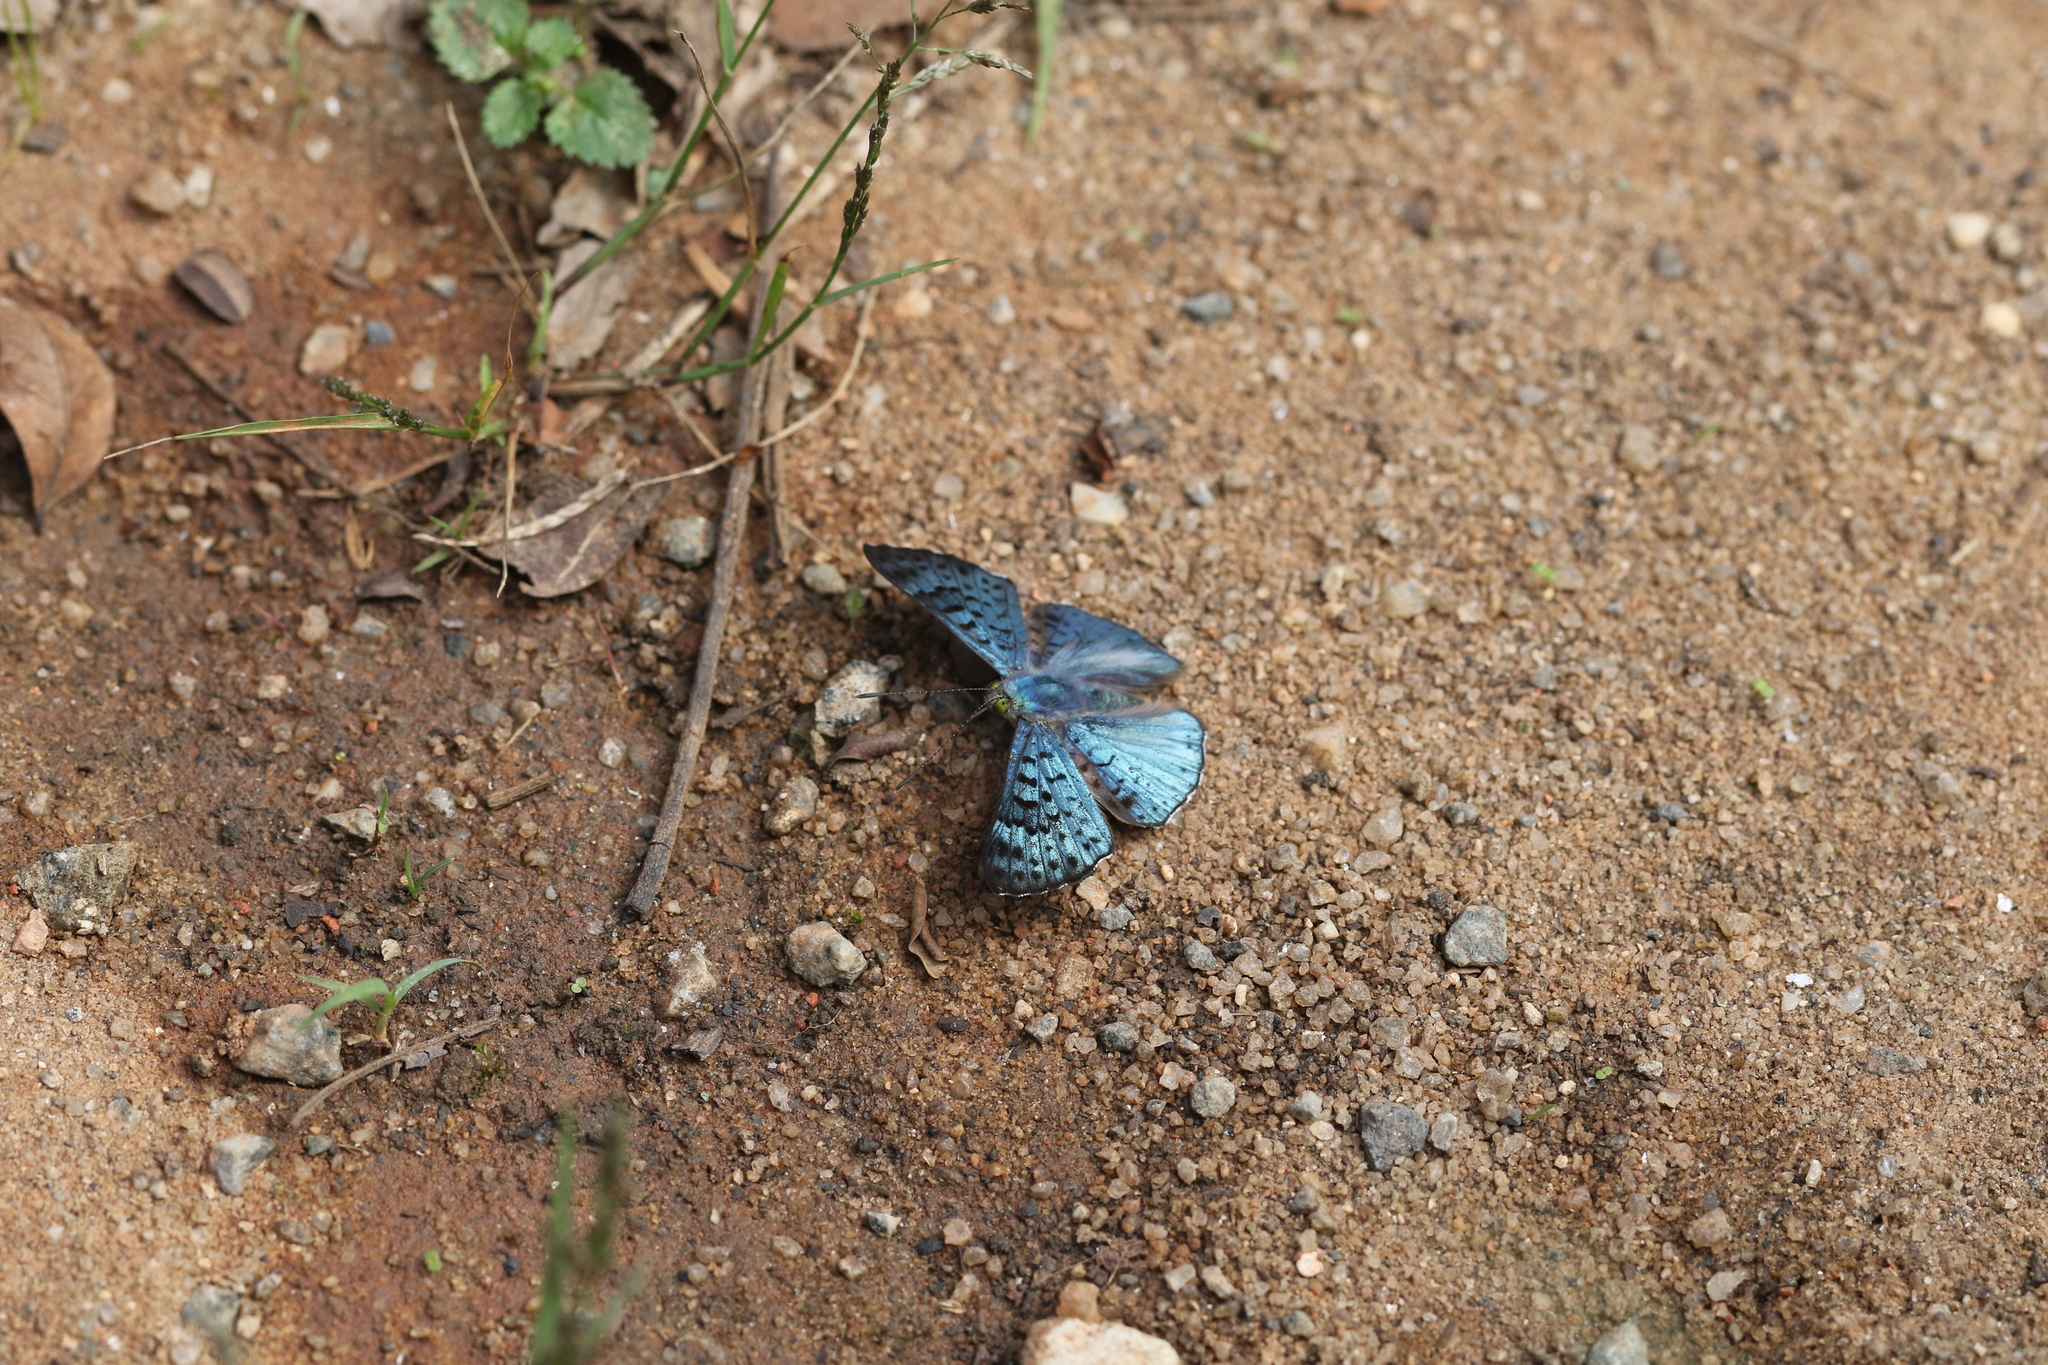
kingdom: Animalia
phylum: Arthropoda
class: Insecta
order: Lepidoptera
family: Riodinidae
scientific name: Riodinidae
